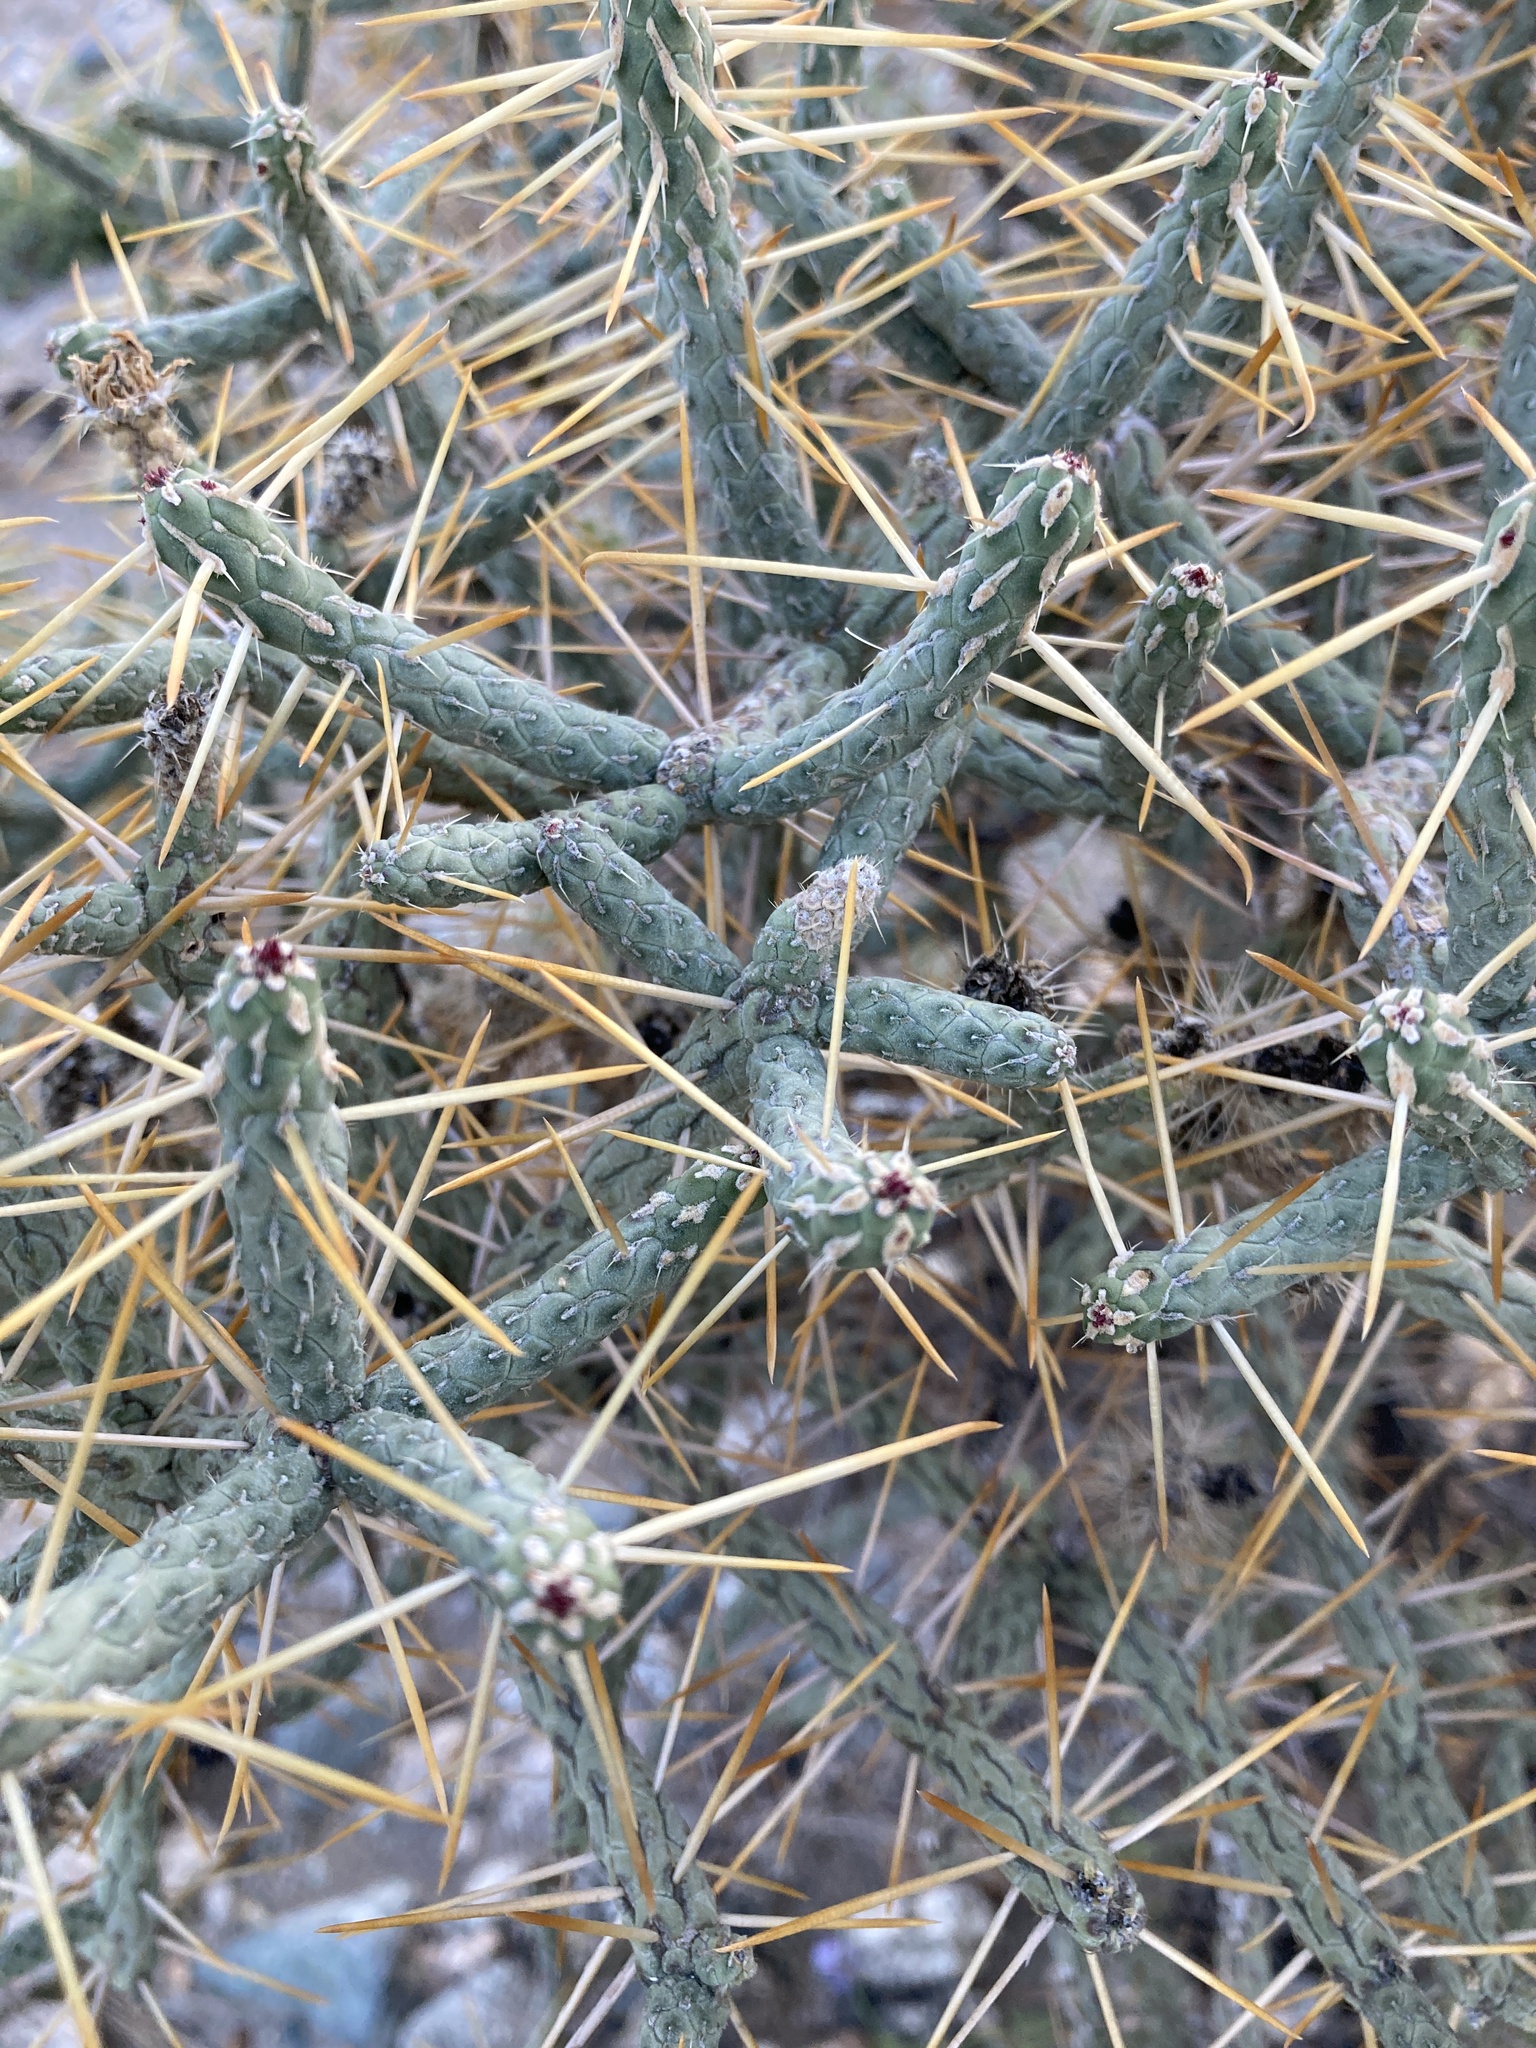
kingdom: Plantae
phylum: Tracheophyta
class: Magnoliopsida
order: Caryophyllales
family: Cactaceae
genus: Cylindropuntia
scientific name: Cylindropuntia ramosissima
